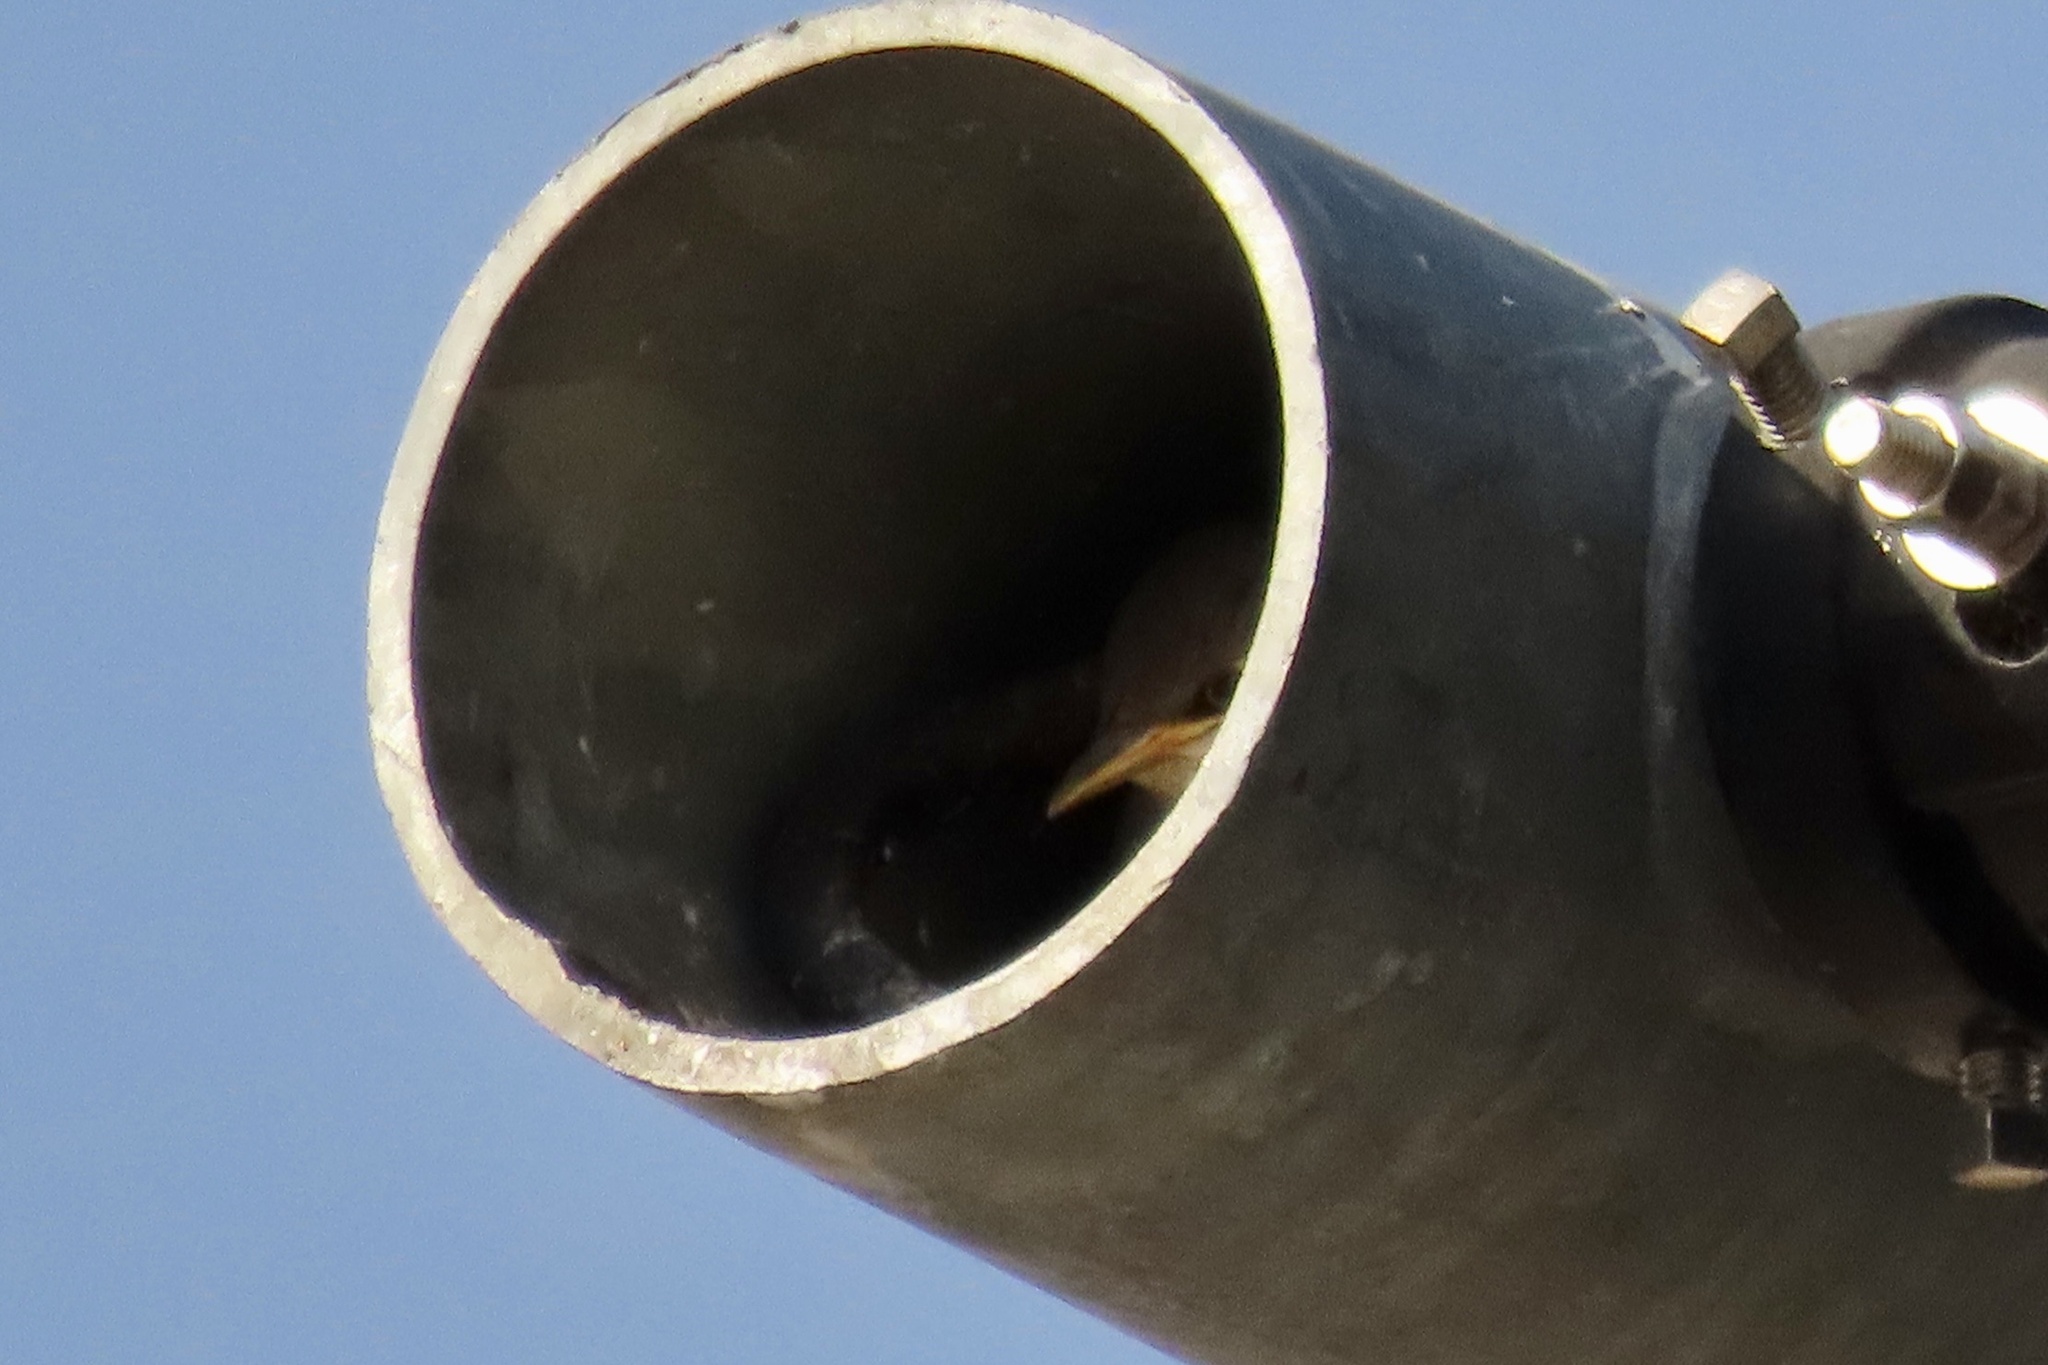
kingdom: Animalia
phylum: Chordata
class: Aves
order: Passeriformes
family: Sturnidae
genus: Sturnus
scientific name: Sturnus vulgaris
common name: Common starling
